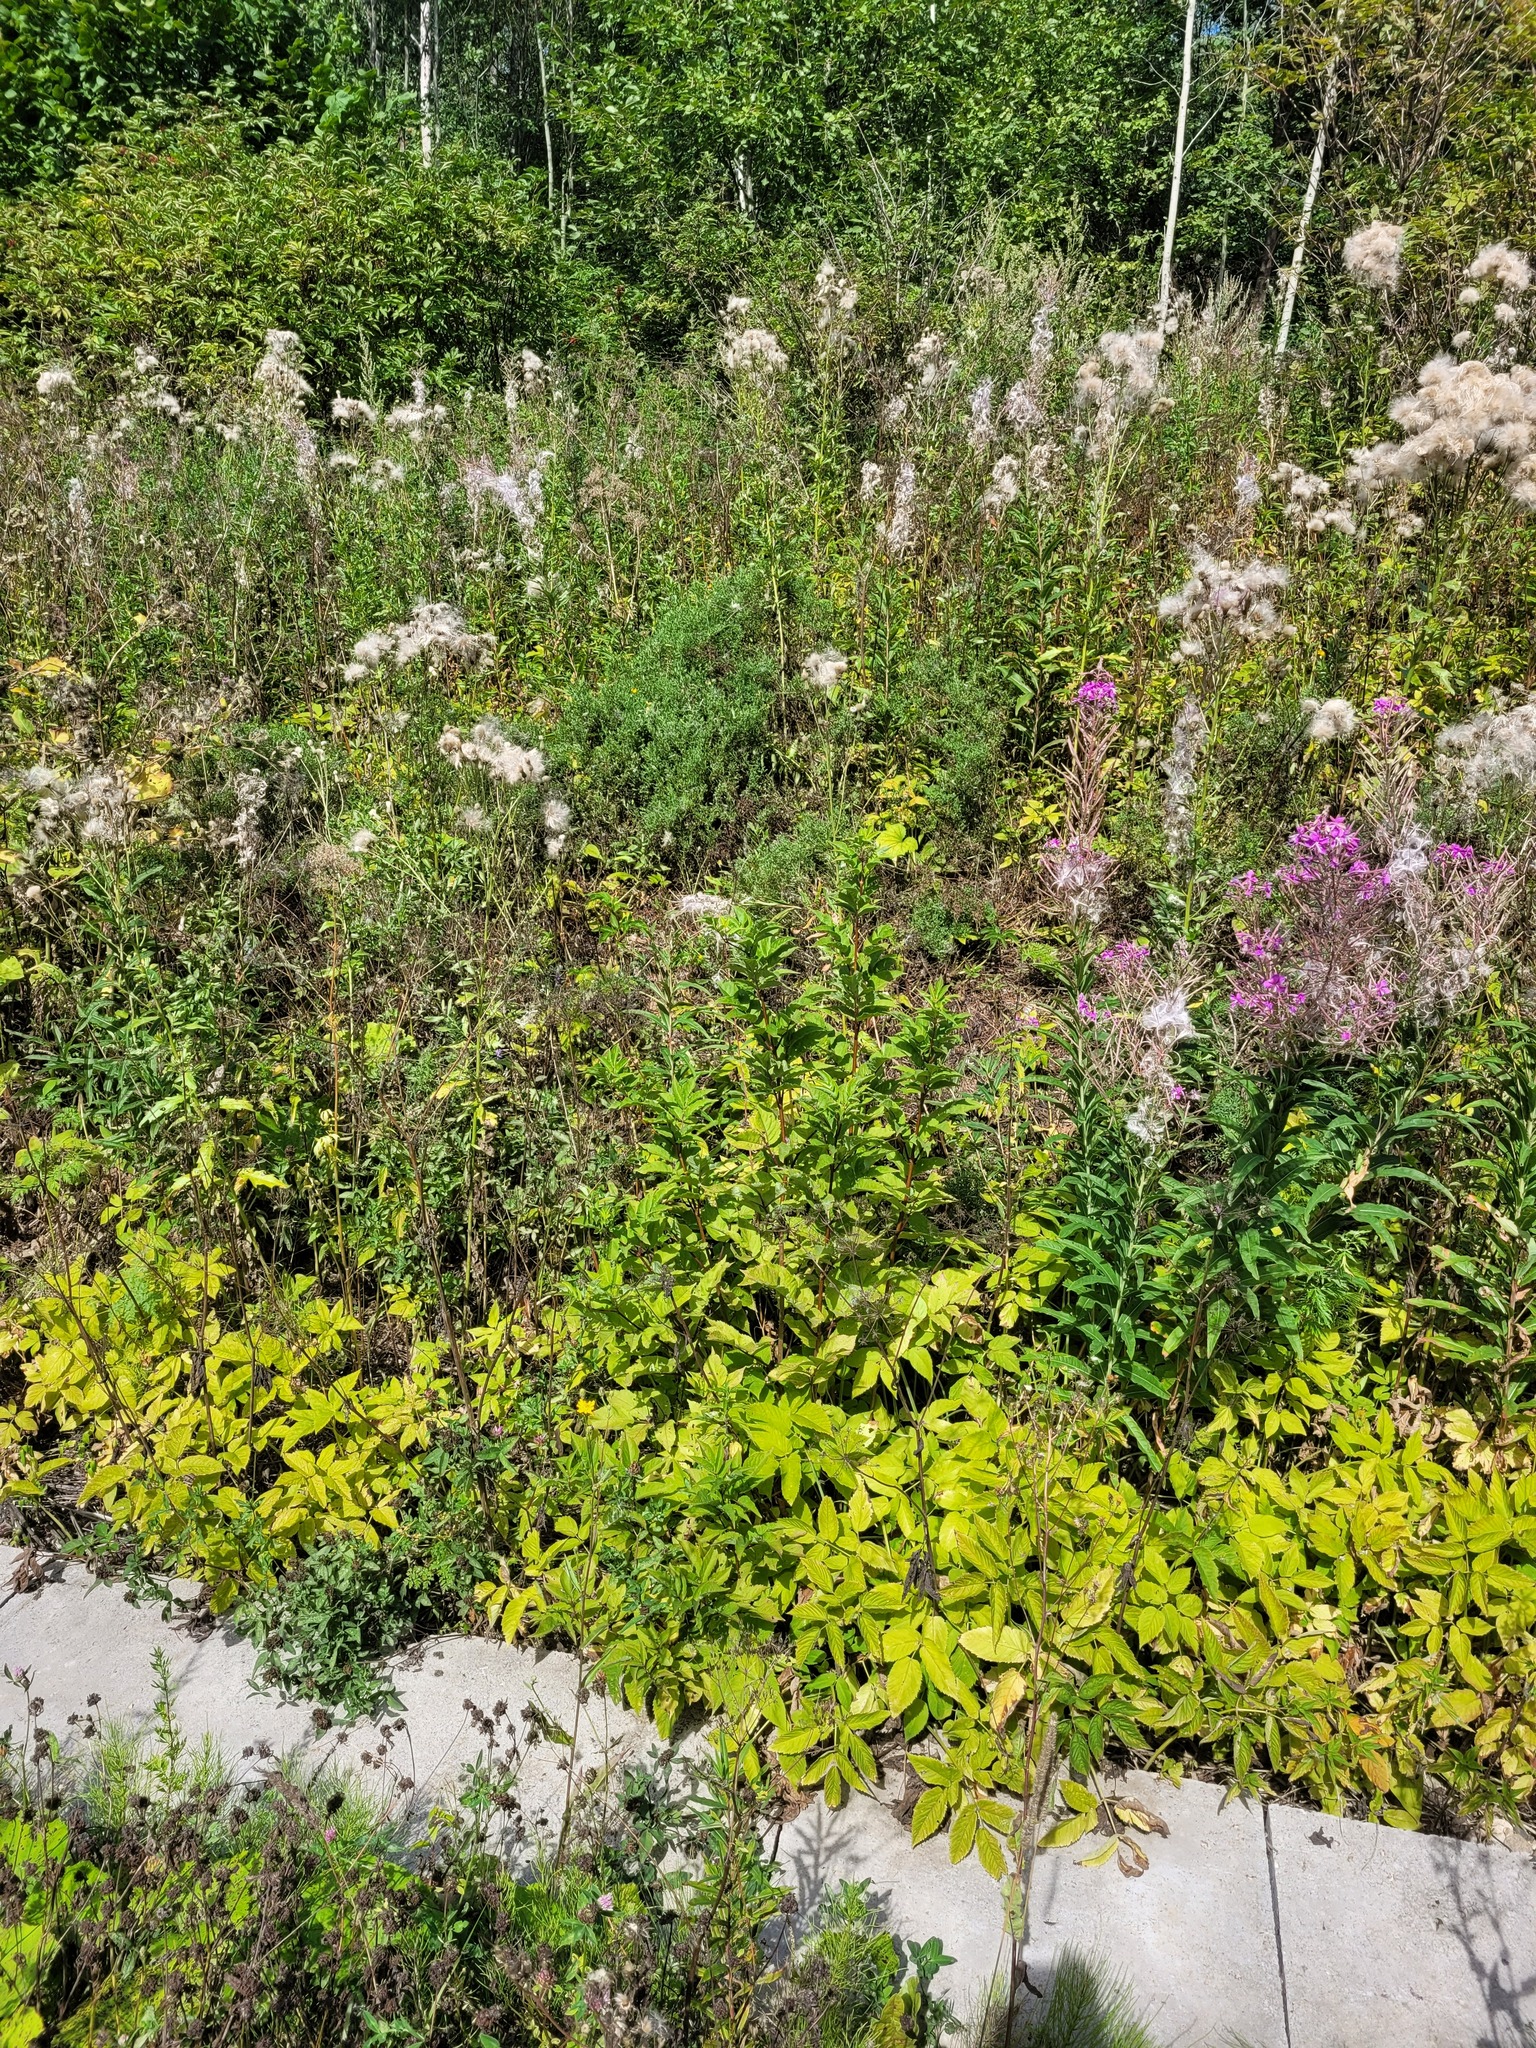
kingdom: Plantae
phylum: Tracheophyta
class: Magnoliopsida
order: Dipsacales
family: Viburnaceae
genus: Sambucus
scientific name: Sambucus racemosa
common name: Red-berried elder
